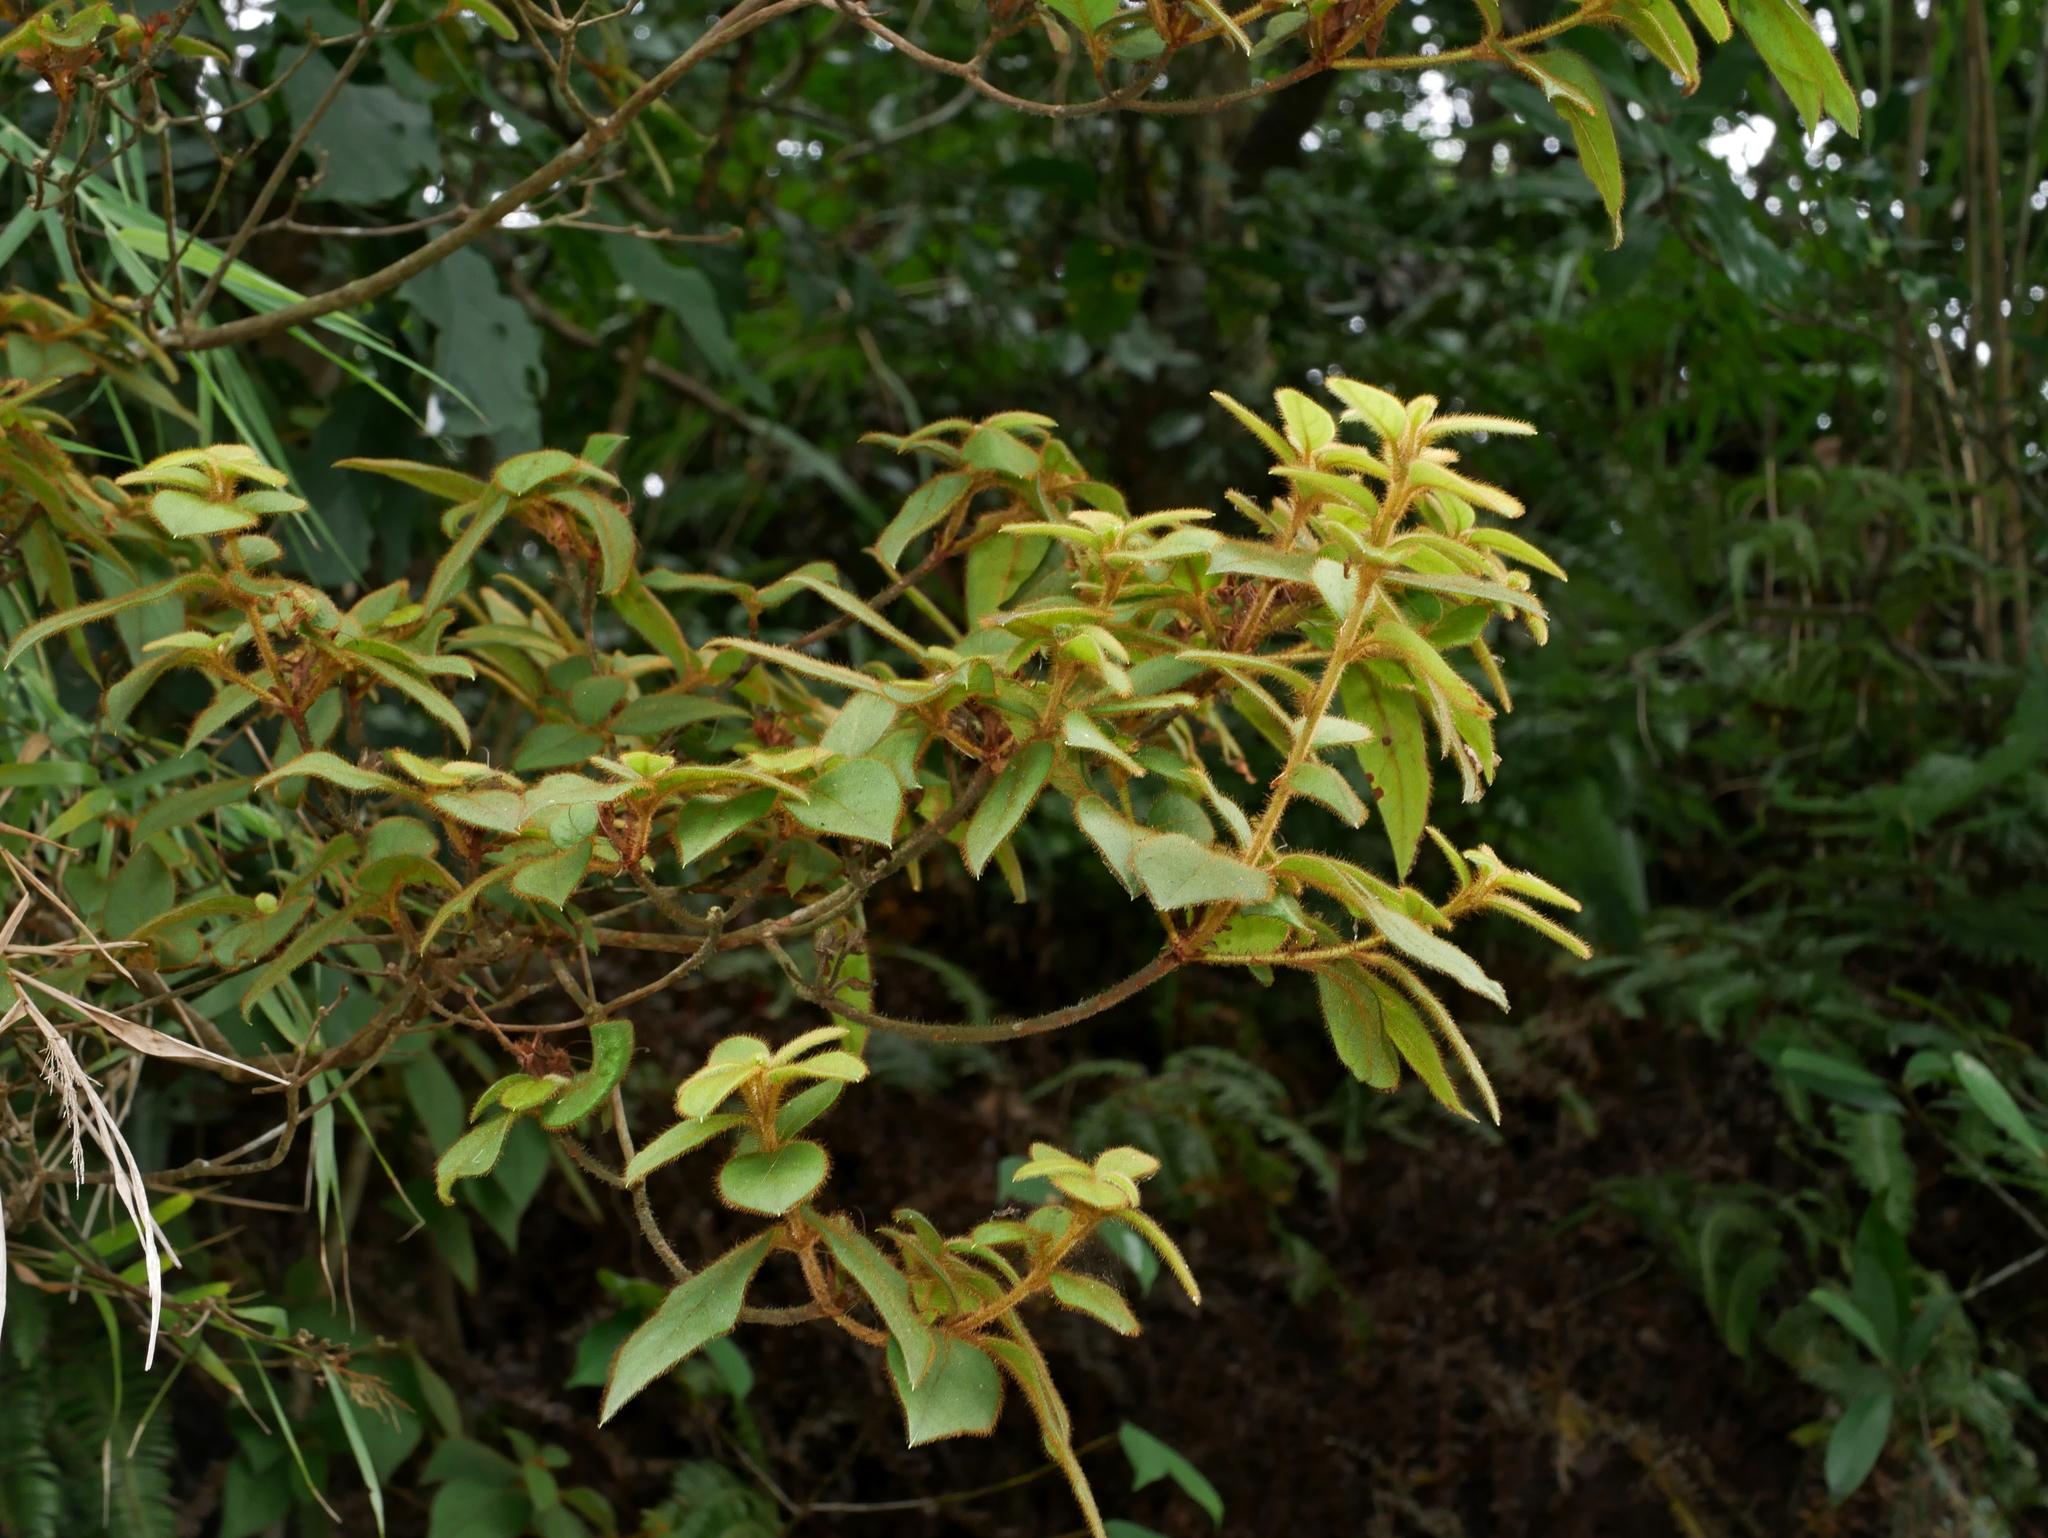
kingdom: Plantae
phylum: Tracheophyta
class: Magnoliopsida
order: Ericales
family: Ericaceae
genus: Rhododendron
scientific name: Rhododendron oldhamii
